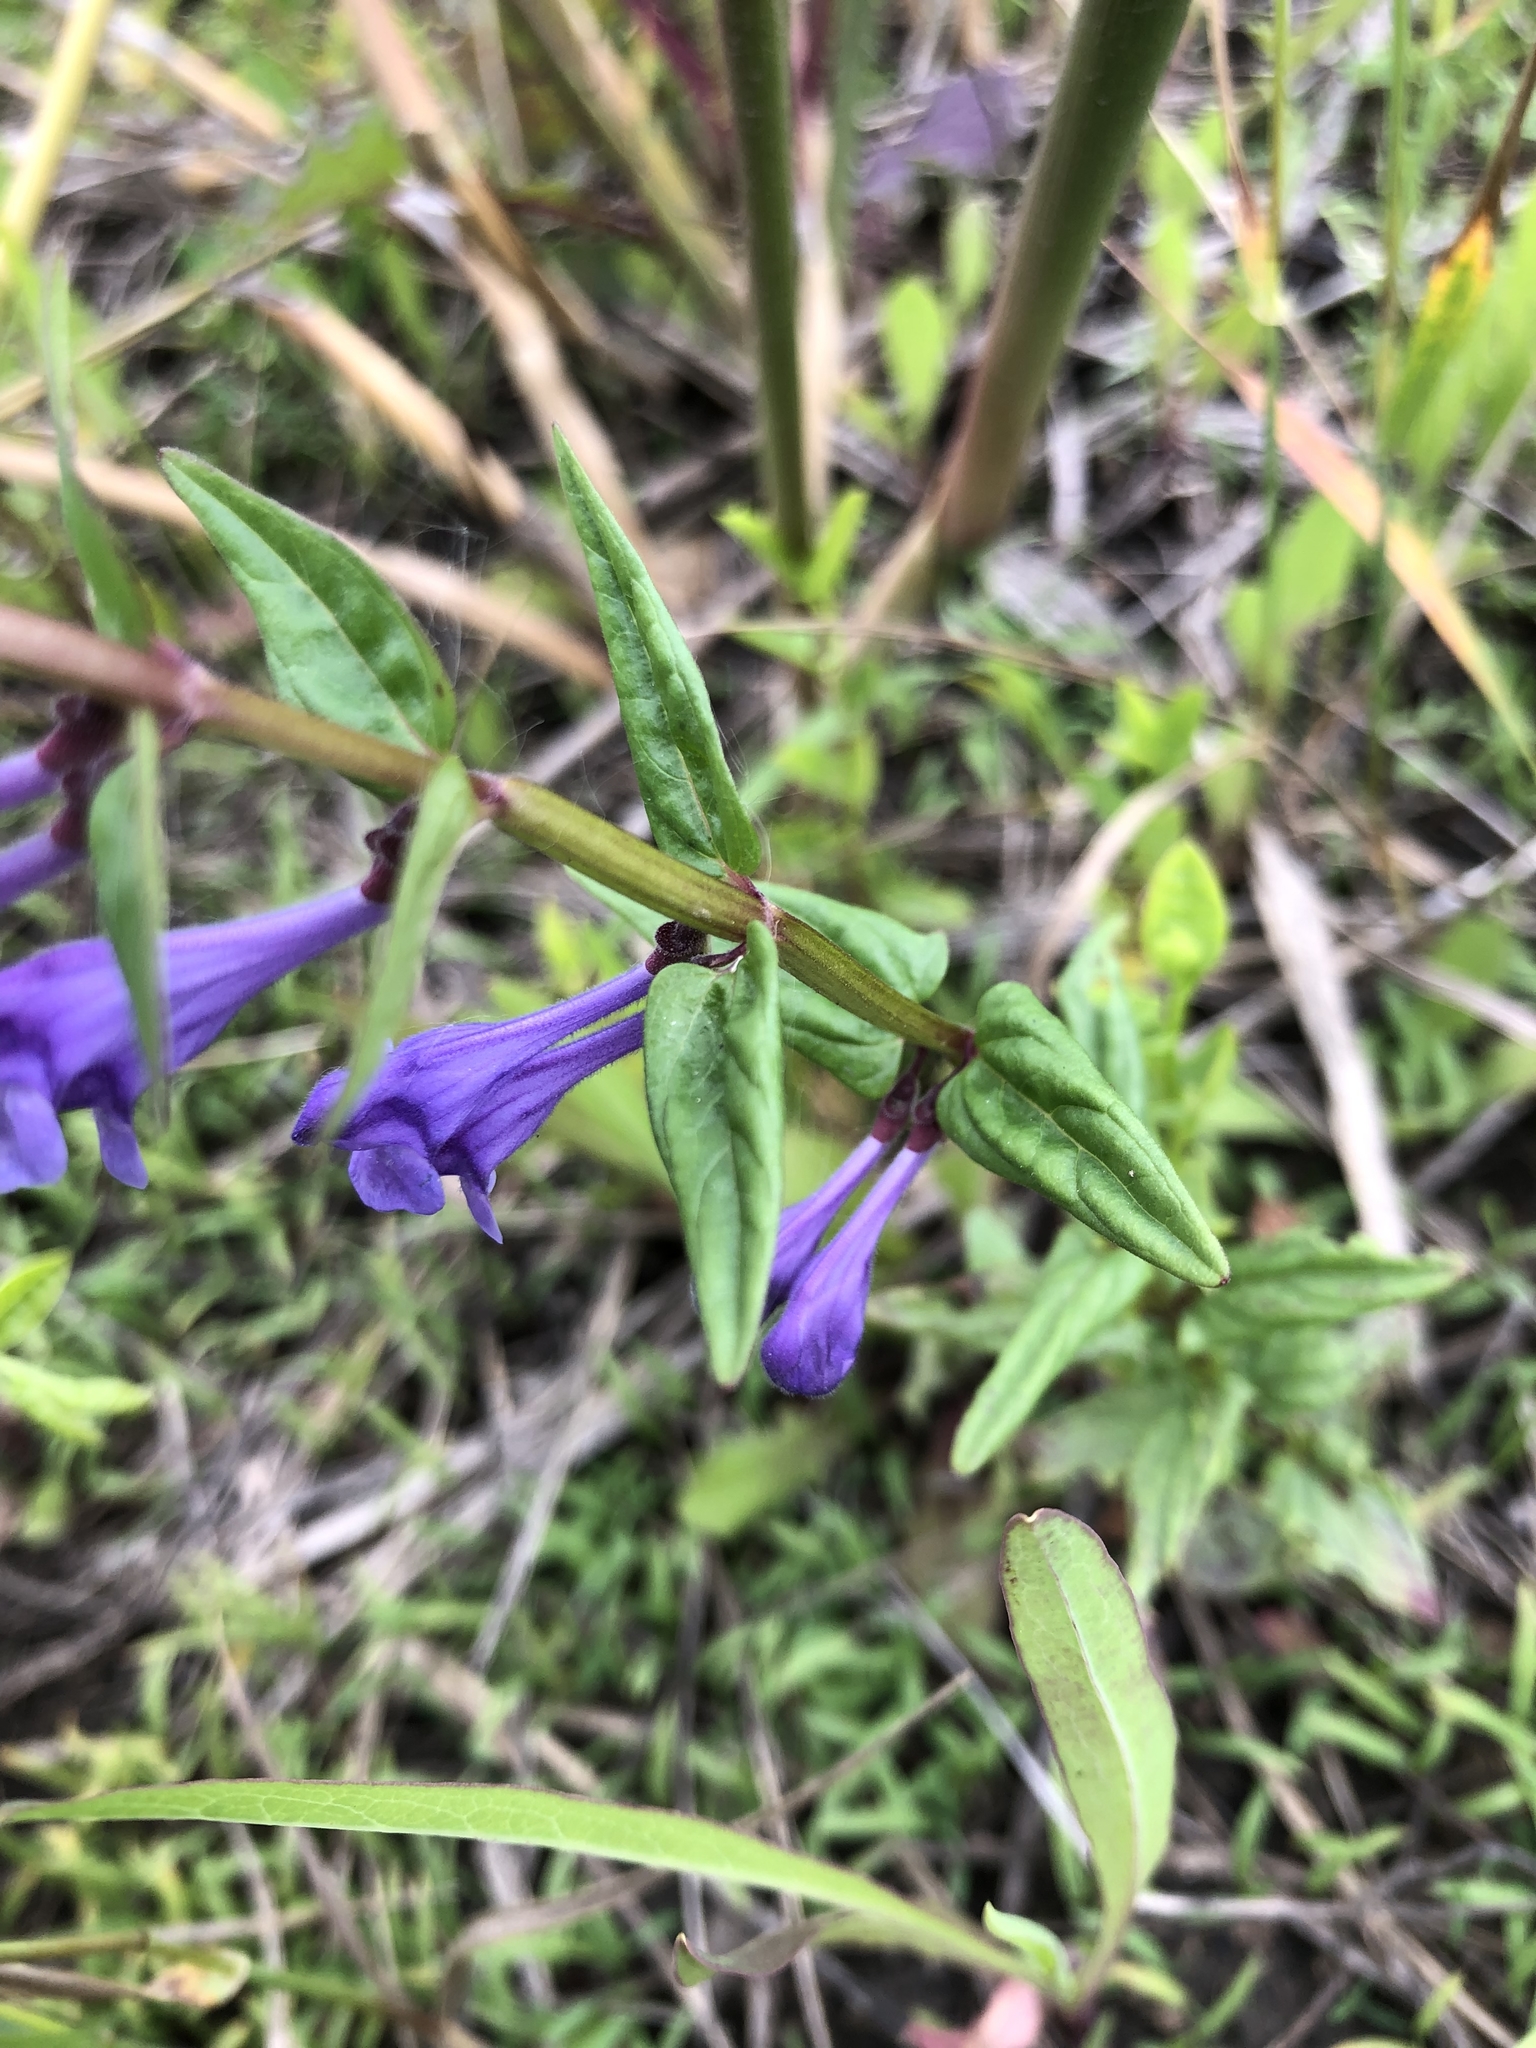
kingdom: Plantae
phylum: Tracheophyta
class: Magnoliopsida
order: Lamiales
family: Lamiaceae
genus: Scutellaria
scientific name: Scutellaria hastifolia
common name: Norfolk skullcap
